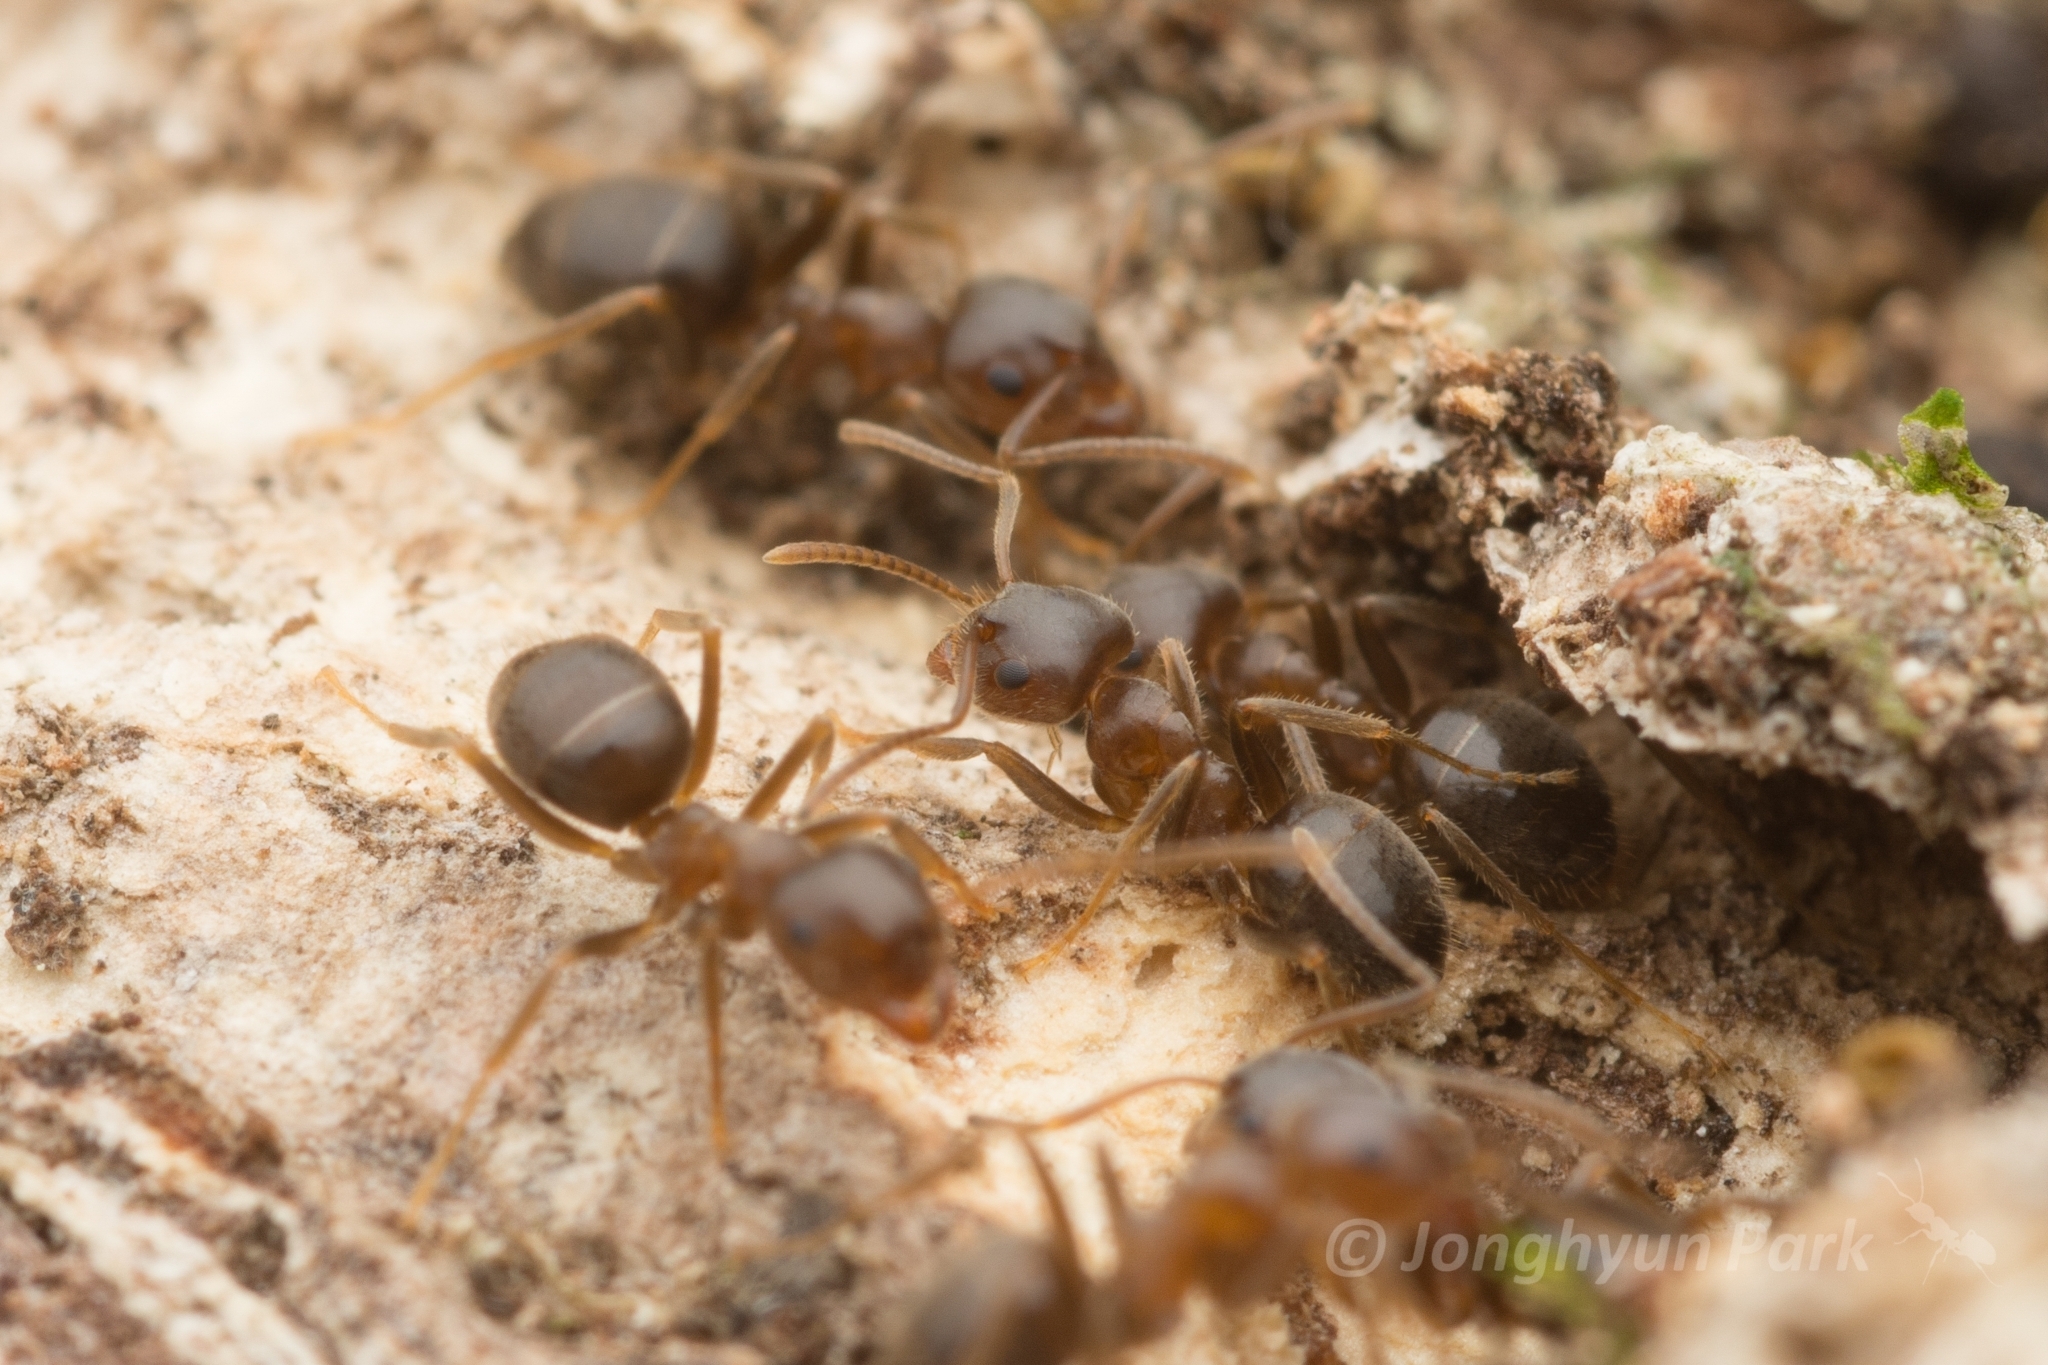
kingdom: Animalia
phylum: Arthropoda
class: Insecta
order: Hymenoptera
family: Formicidae
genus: Lasius
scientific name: Lasius hayashi
